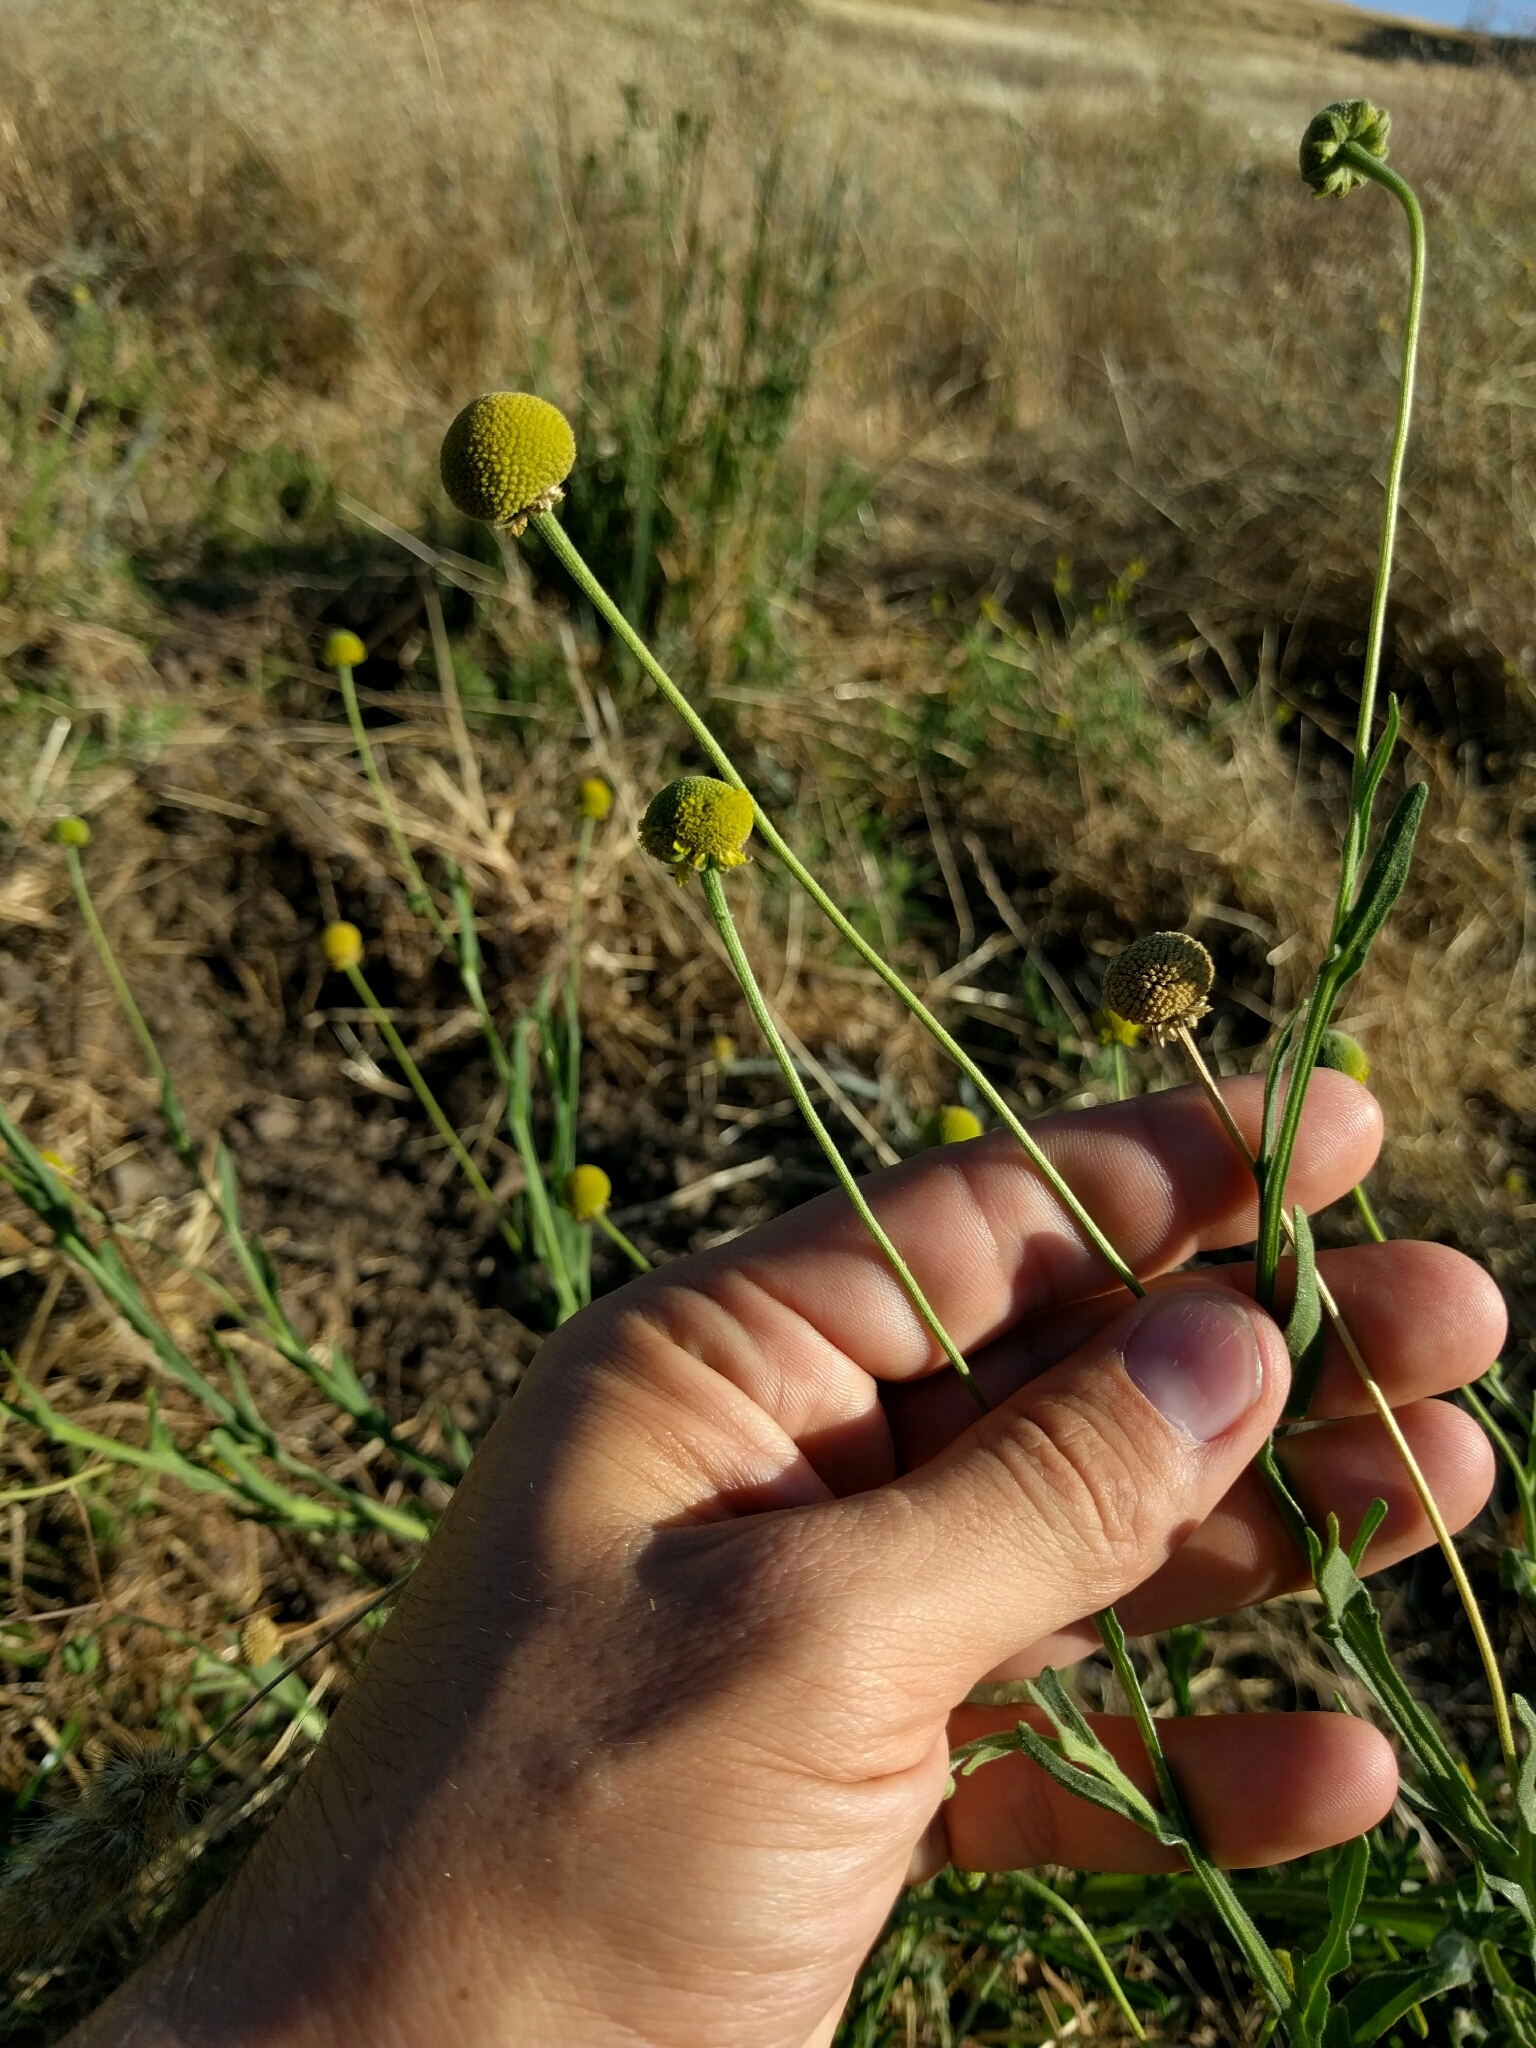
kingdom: Plantae
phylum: Tracheophyta
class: Magnoliopsida
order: Asterales
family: Asteraceae
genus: Helenium
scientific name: Helenium puberulum
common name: Sneezewort
